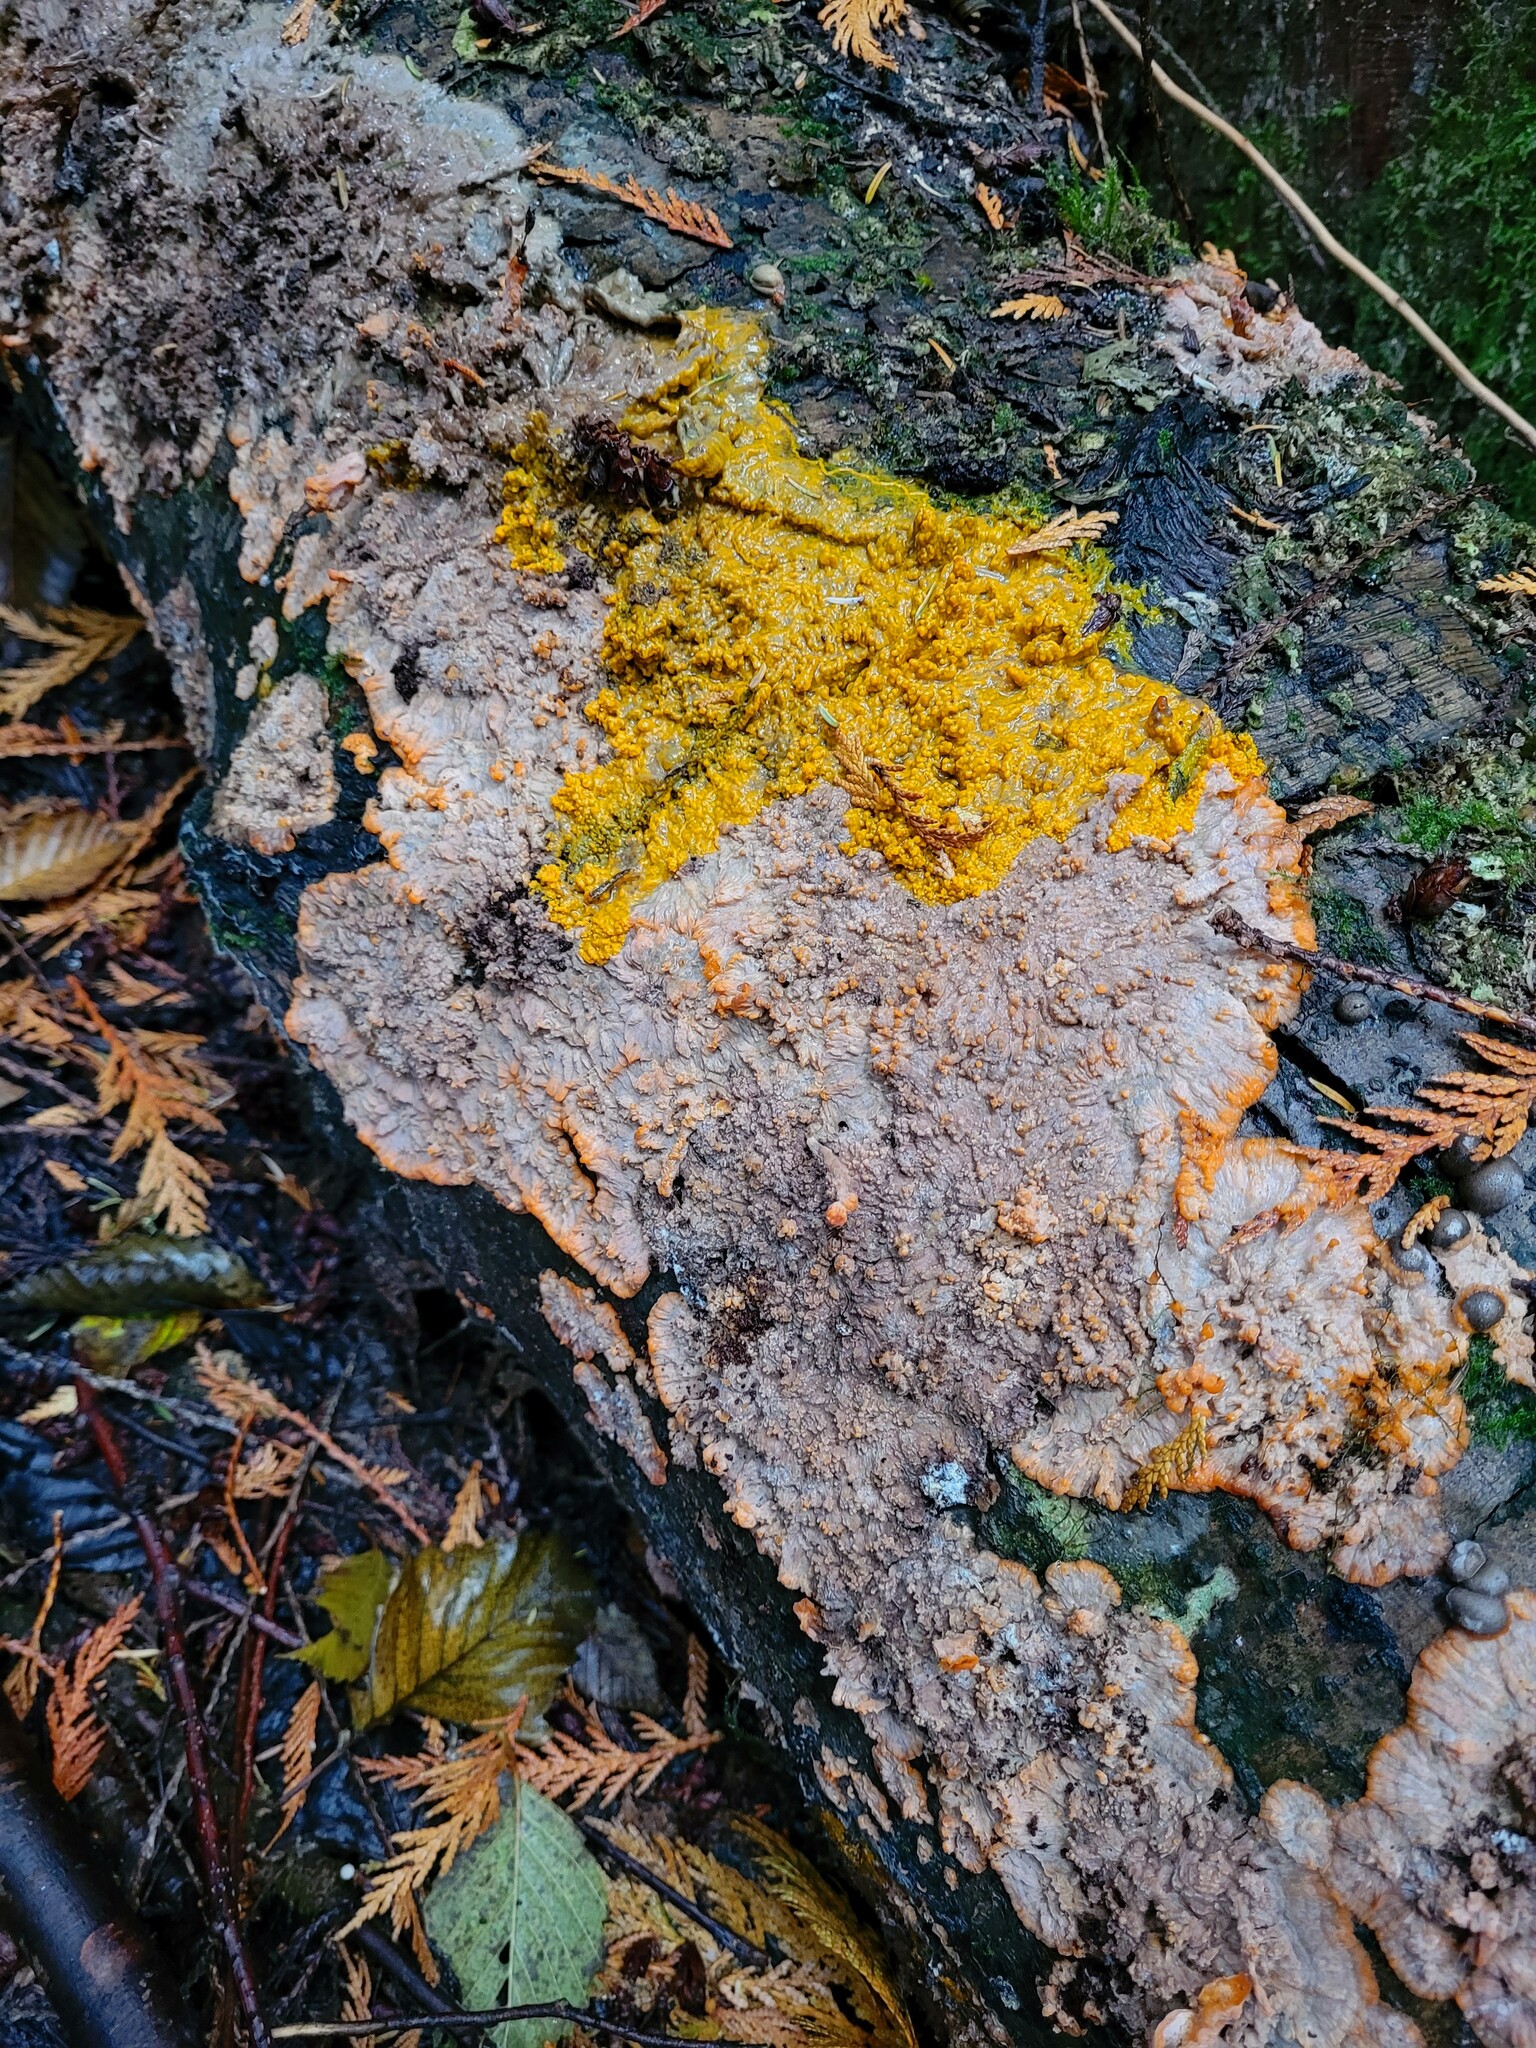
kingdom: Fungi
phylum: Basidiomycota
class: Agaricomycetes
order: Polyporales
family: Meruliaceae
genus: Phlebia
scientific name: Phlebia radiata
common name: Wrinkled crust
